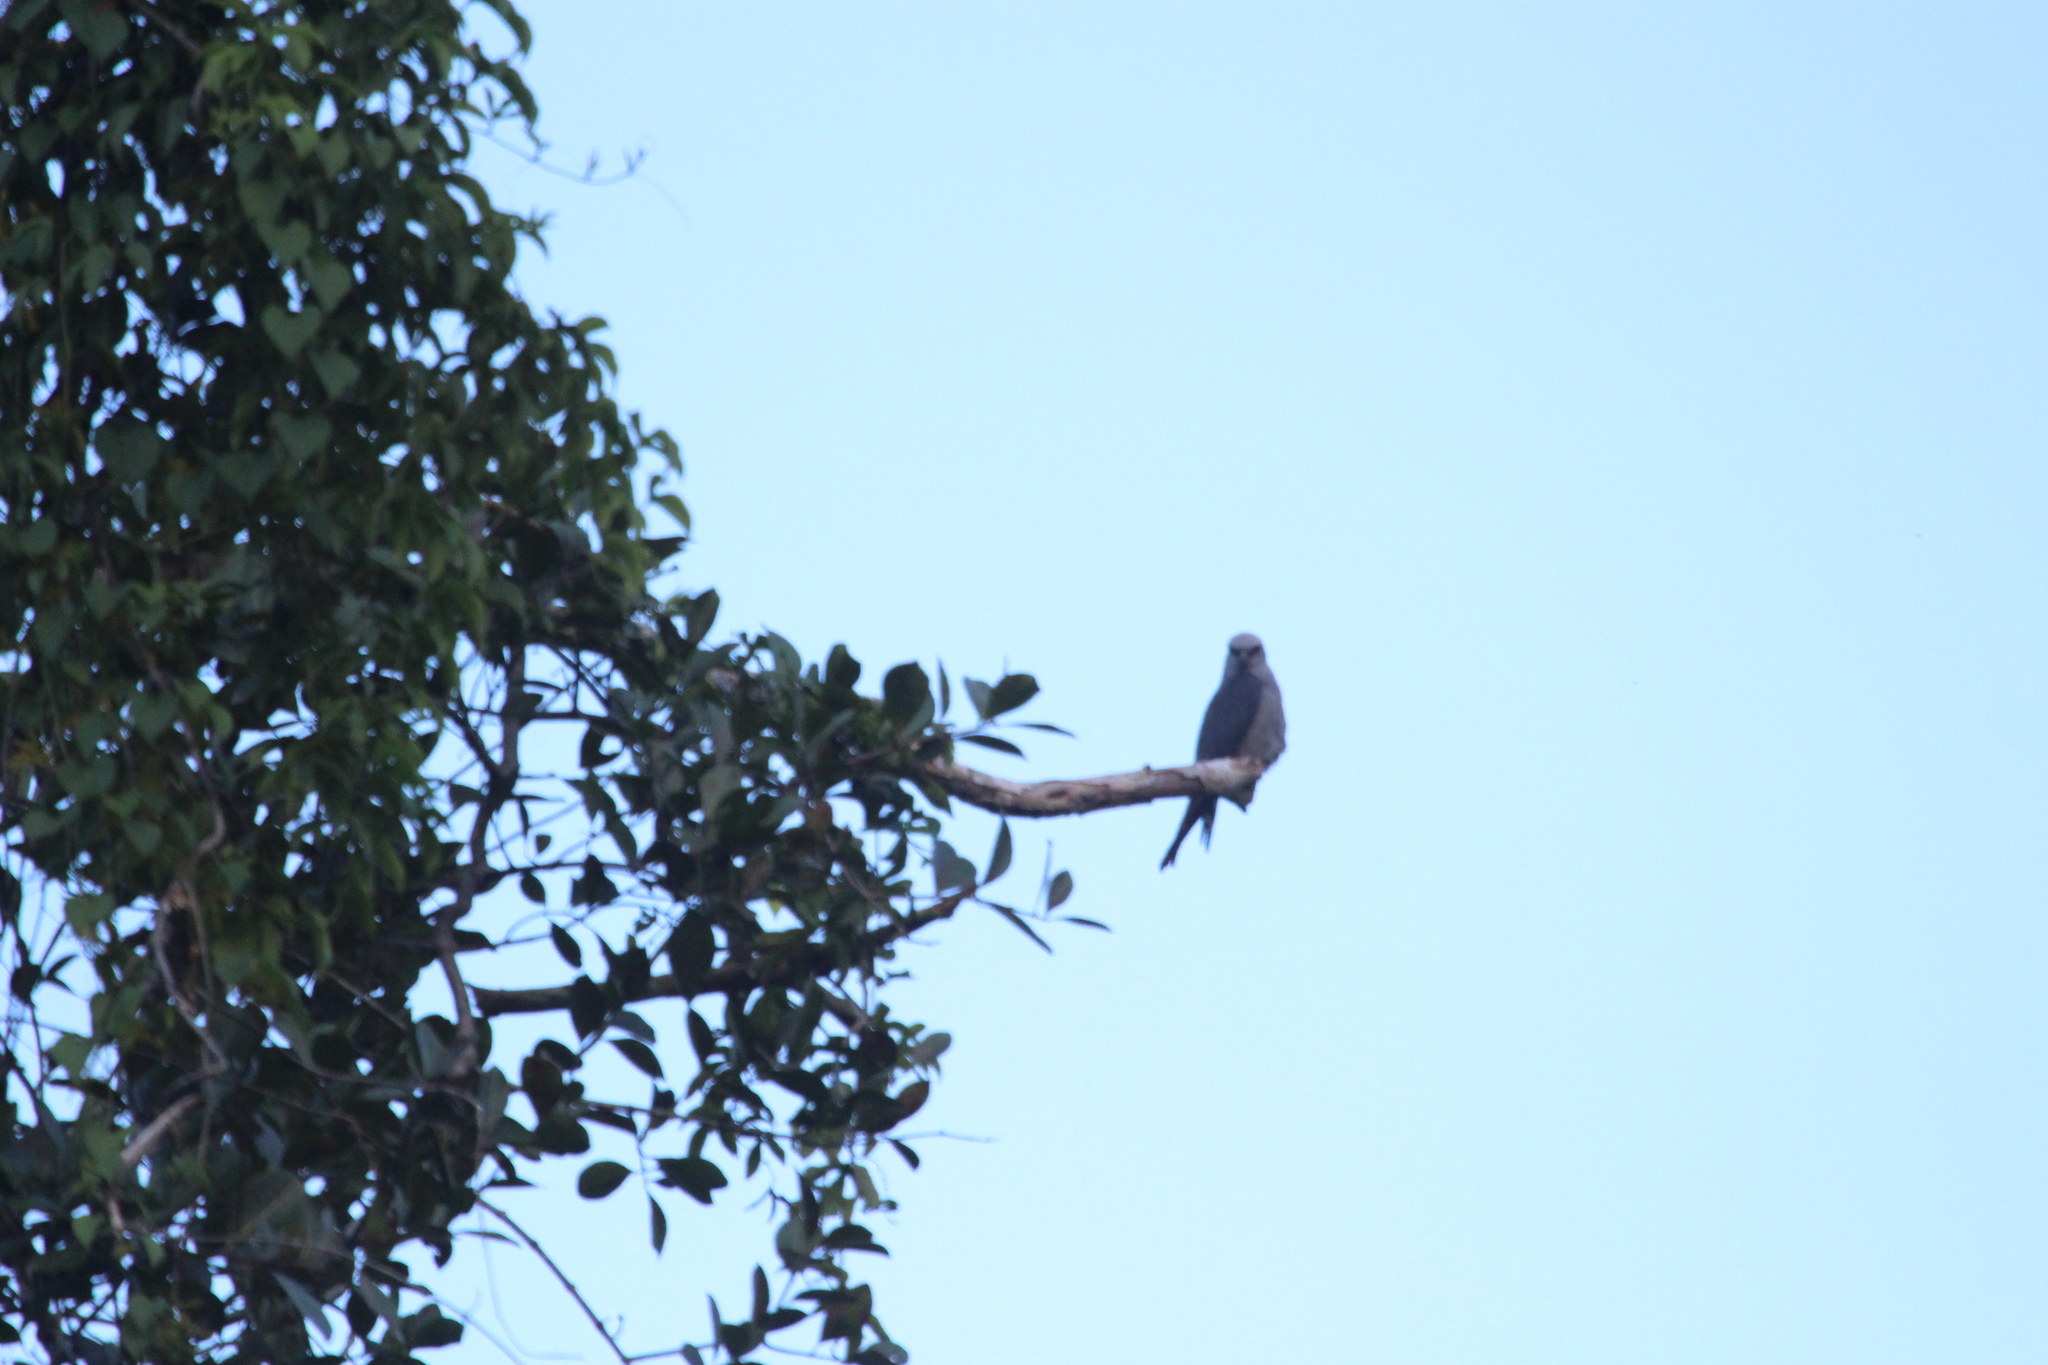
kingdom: Animalia
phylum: Chordata
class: Aves
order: Accipitriformes
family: Accipitridae
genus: Ictinia
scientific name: Ictinia plumbea
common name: Plumbeous kite
